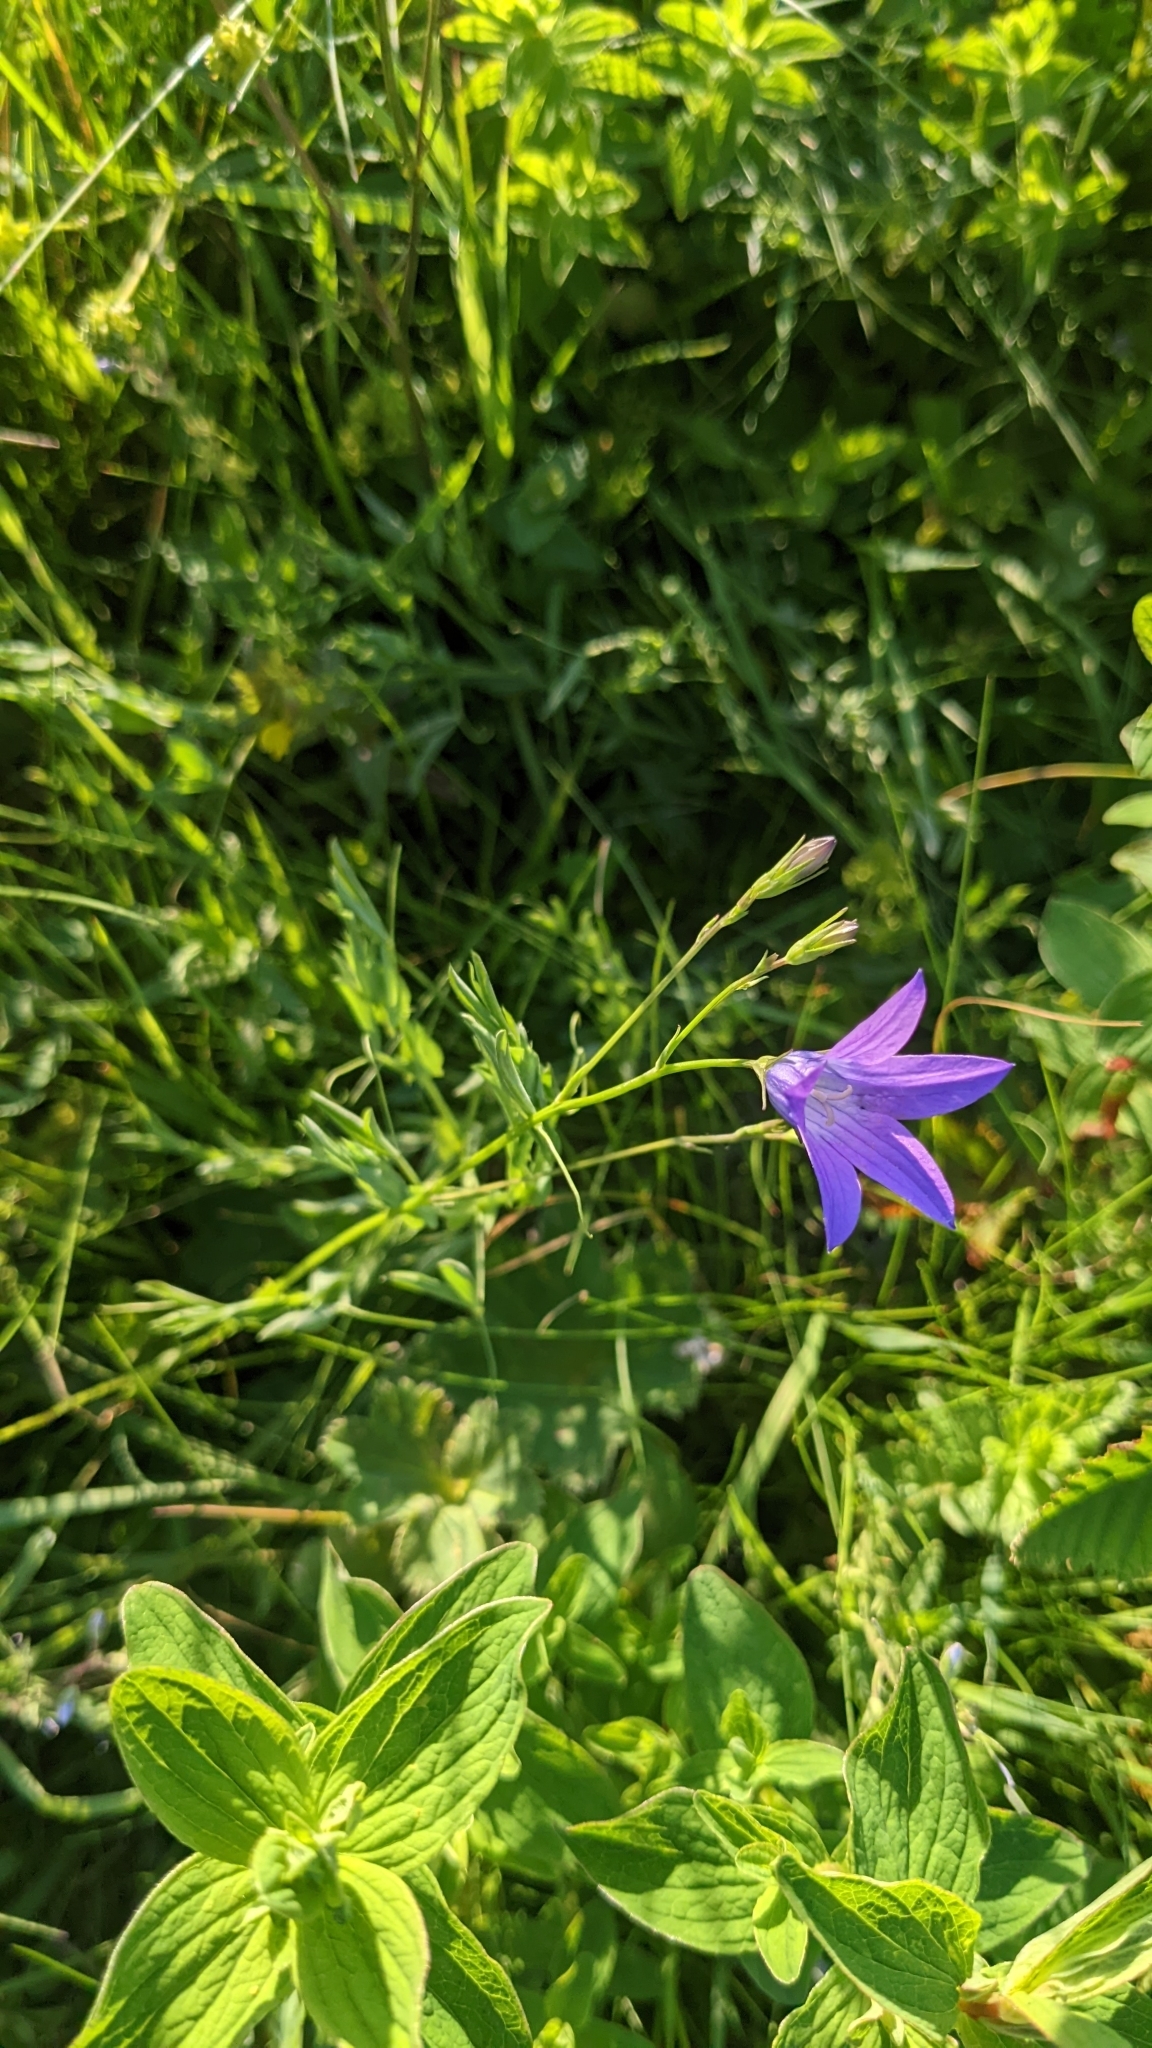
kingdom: Plantae
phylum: Tracheophyta
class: Magnoliopsida
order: Asterales
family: Campanulaceae
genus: Campanula
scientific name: Campanula patula
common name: Spreading bellflower
